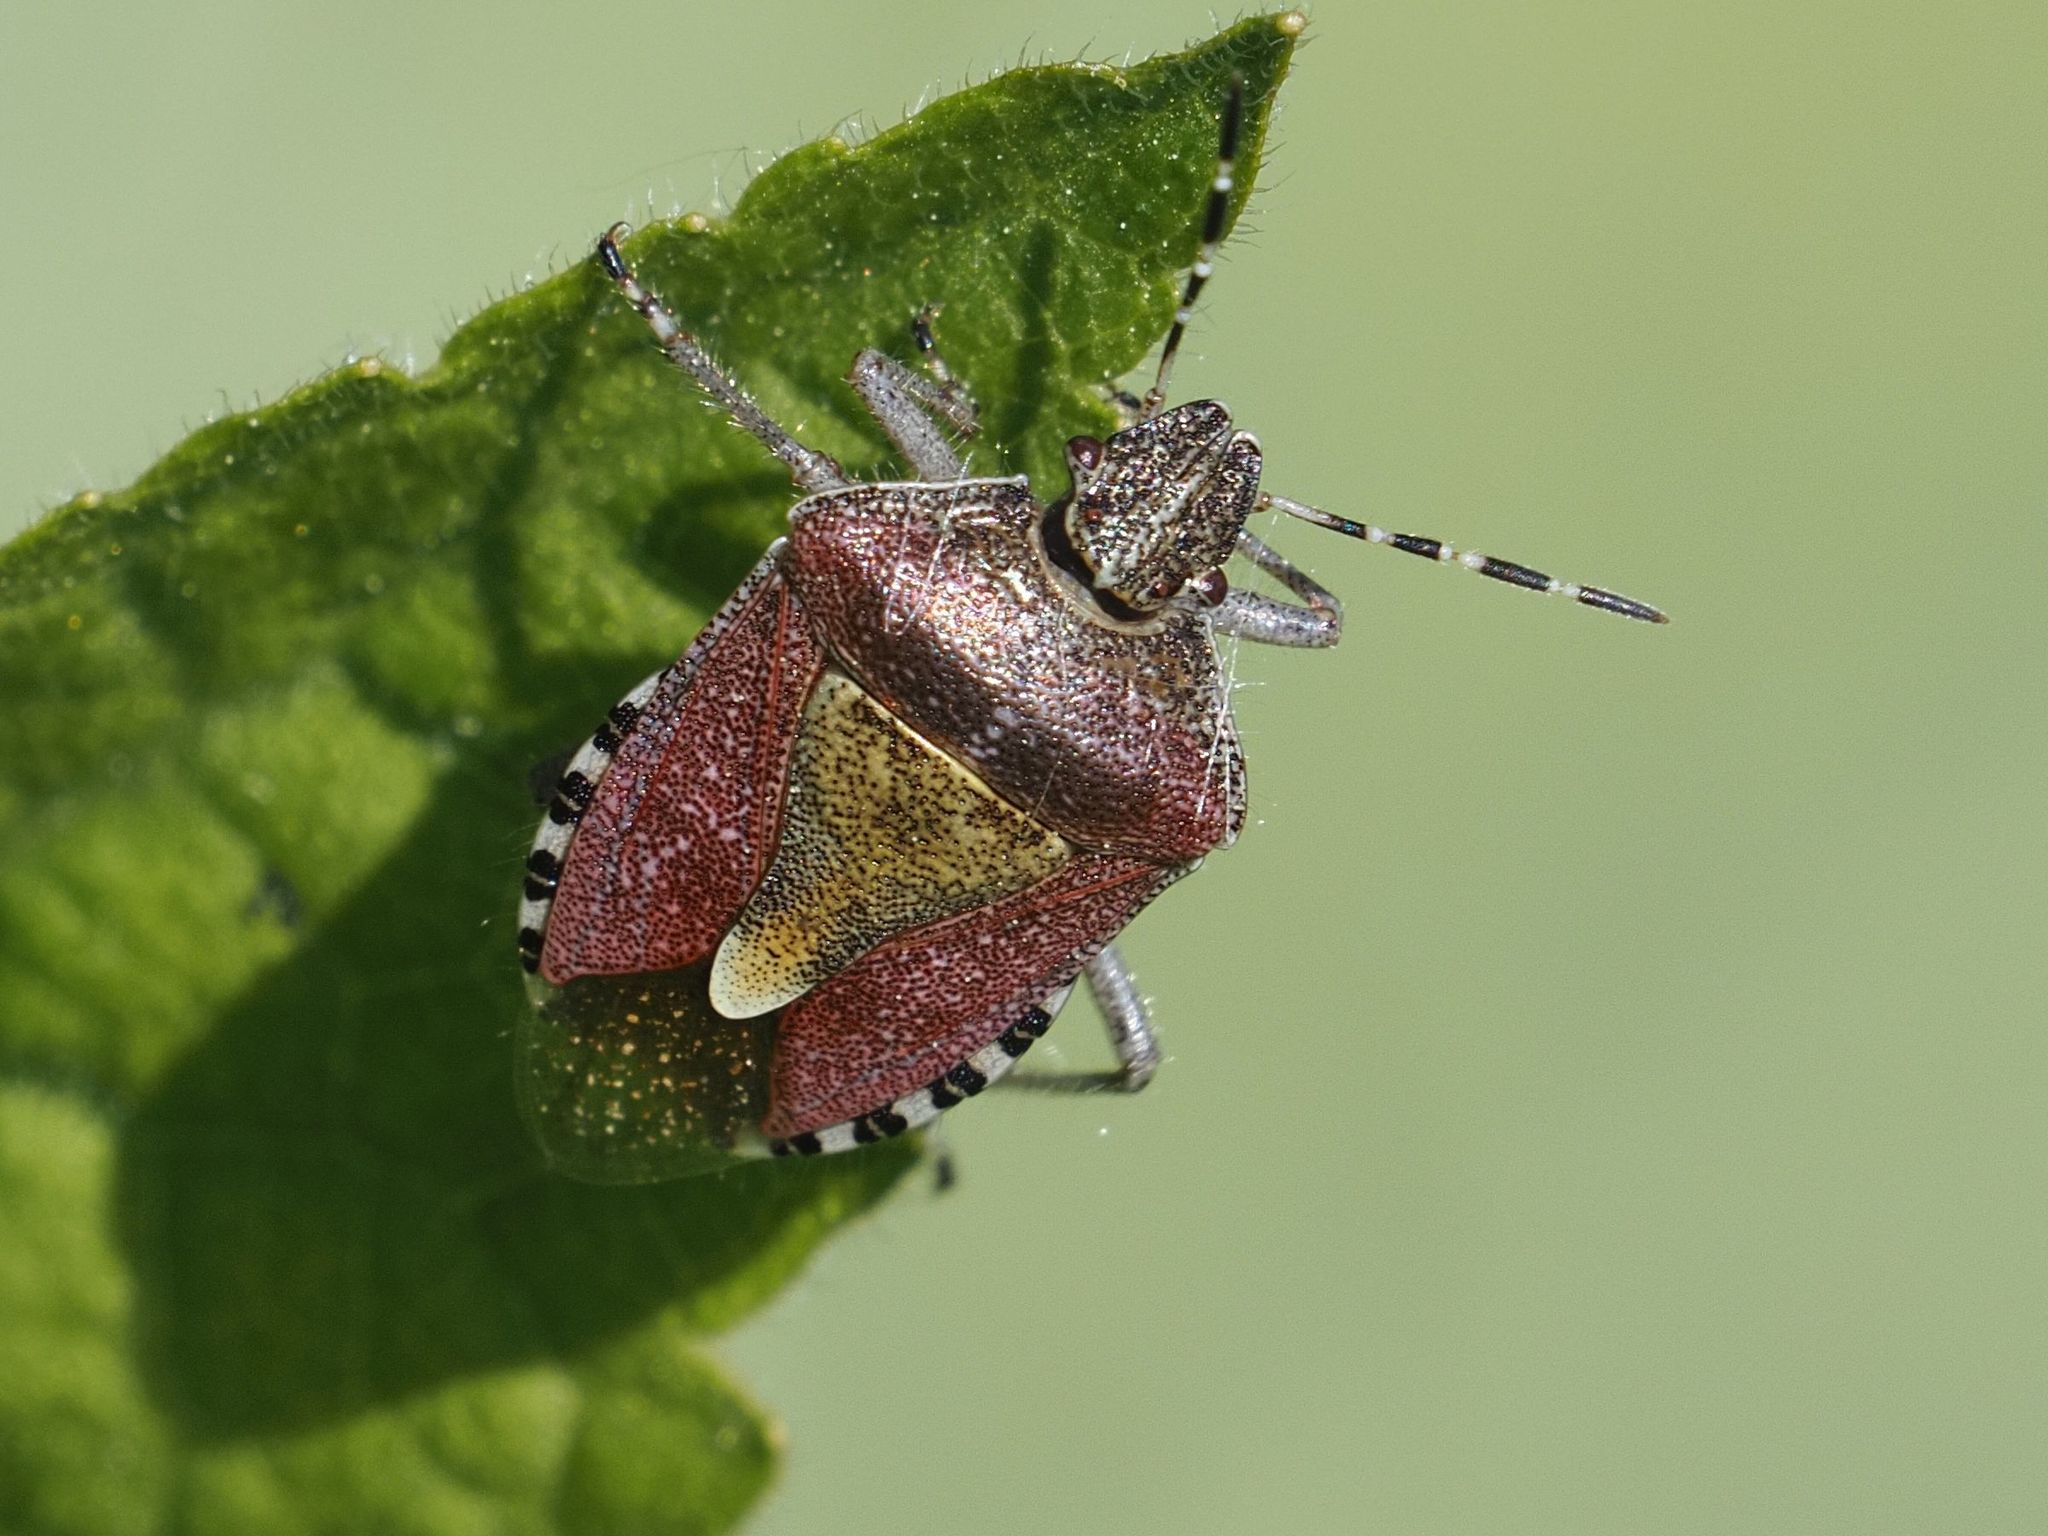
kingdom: Animalia
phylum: Arthropoda
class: Insecta
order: Hemiptera
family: Pentatomidae
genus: Dolycoris
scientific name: Dolycoris baccarum
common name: Sloe bug
